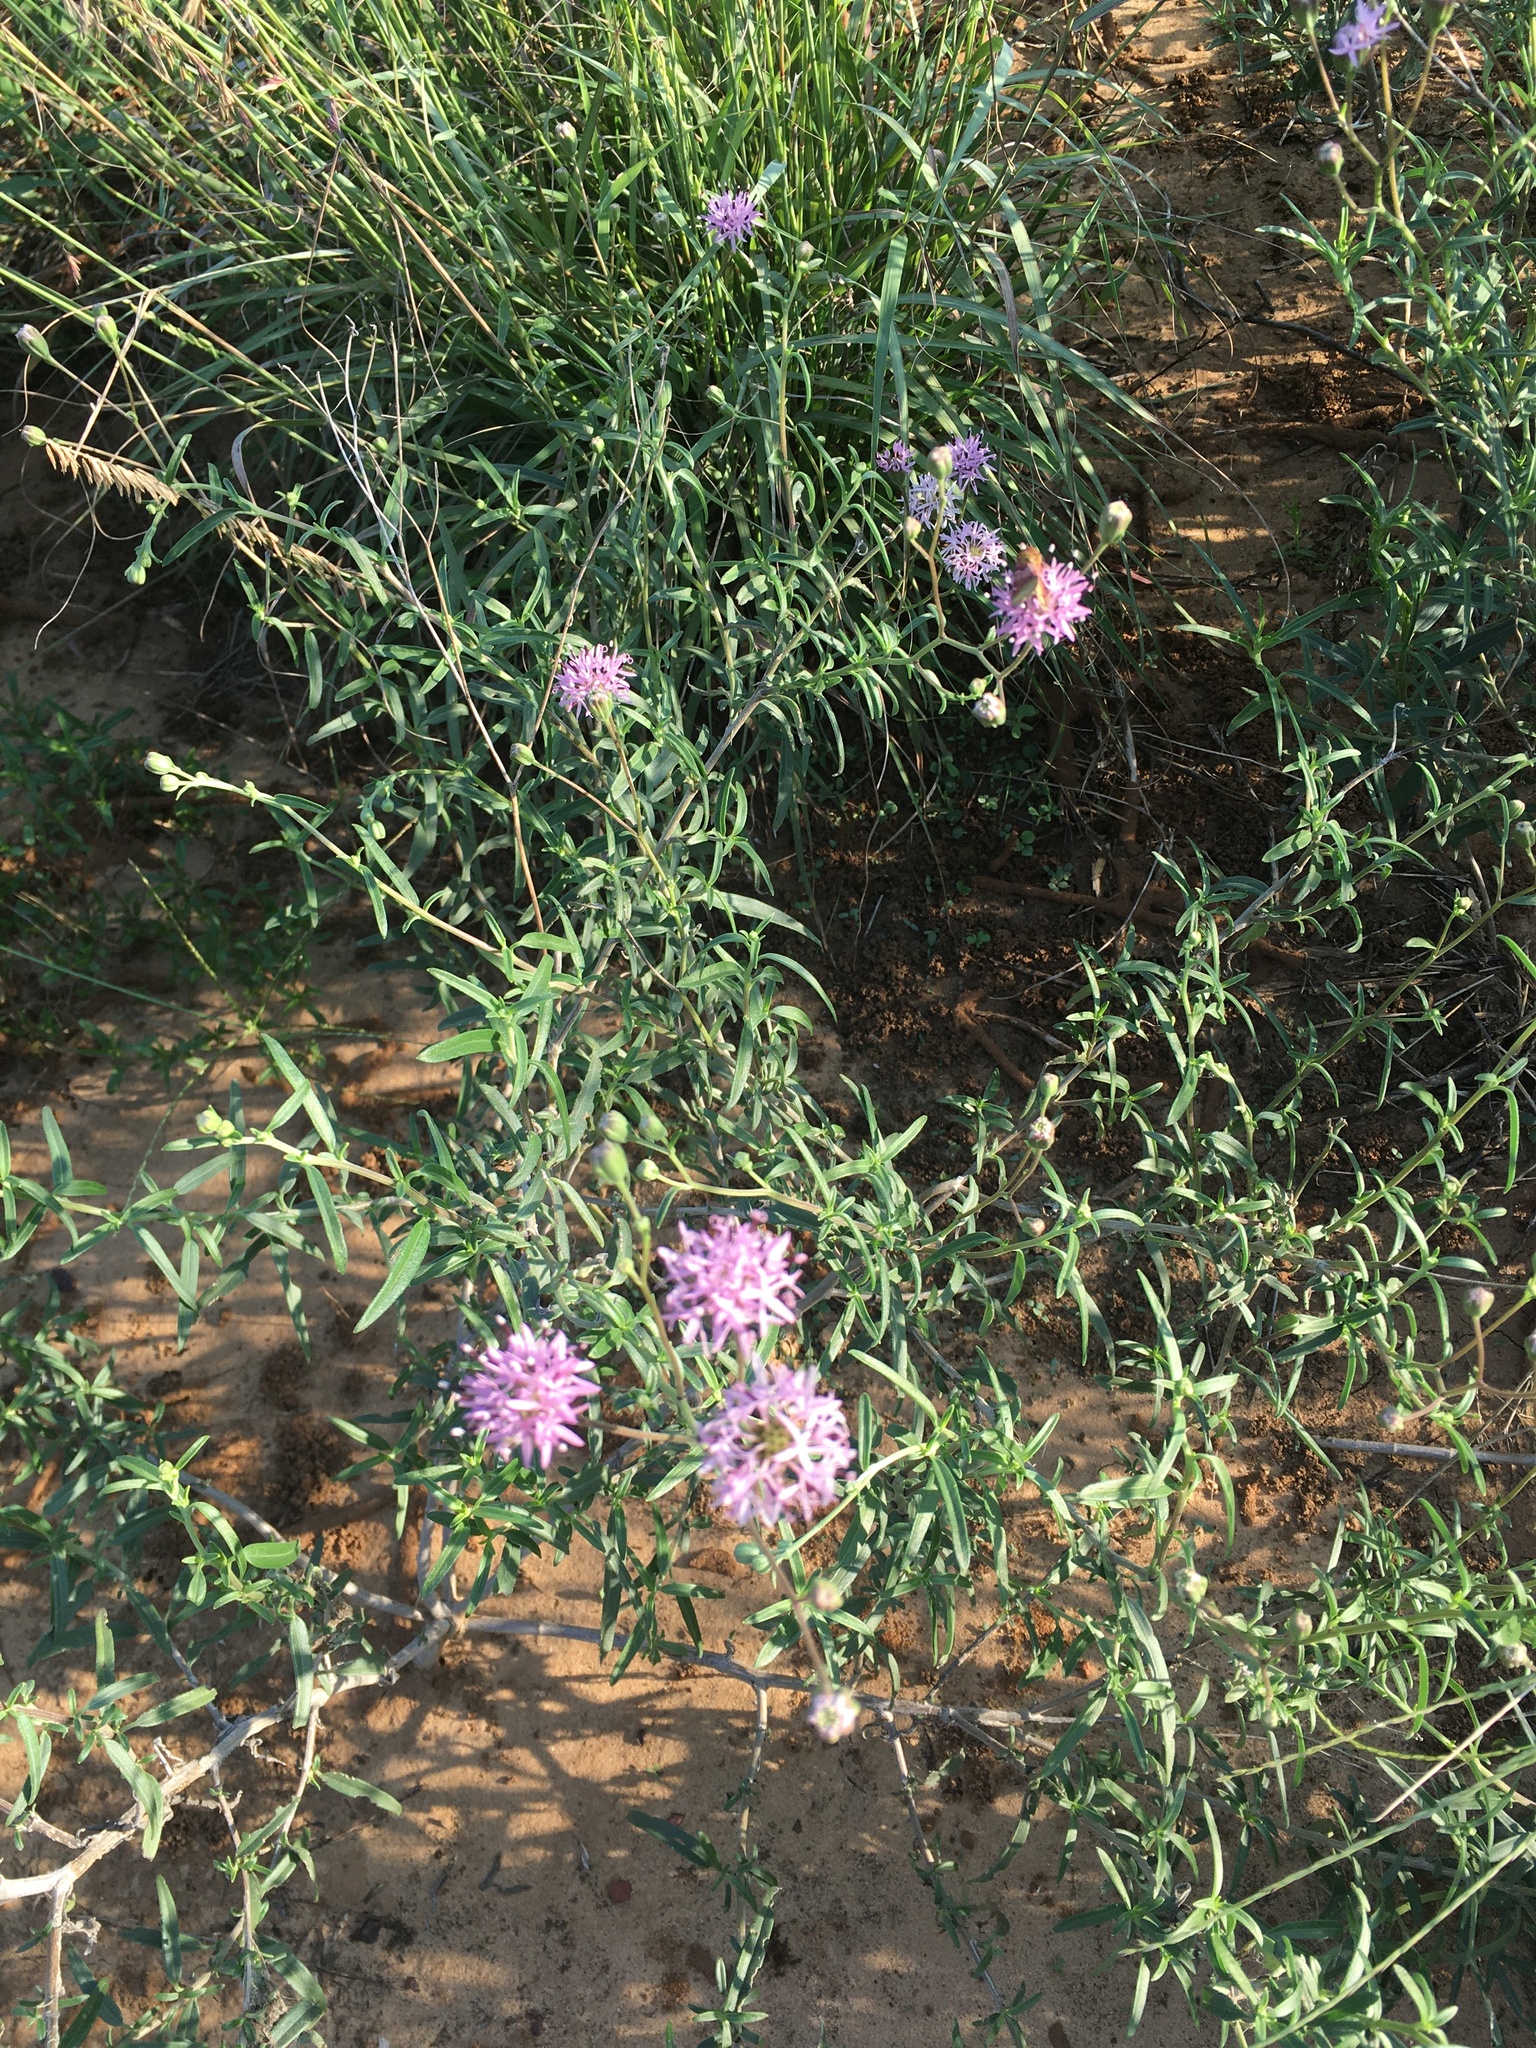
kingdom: Plantae
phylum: Tracheophyta
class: Magnoliopsida
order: Asterales
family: Asteraceae
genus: Palafoxia
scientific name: Palafoxia texana
